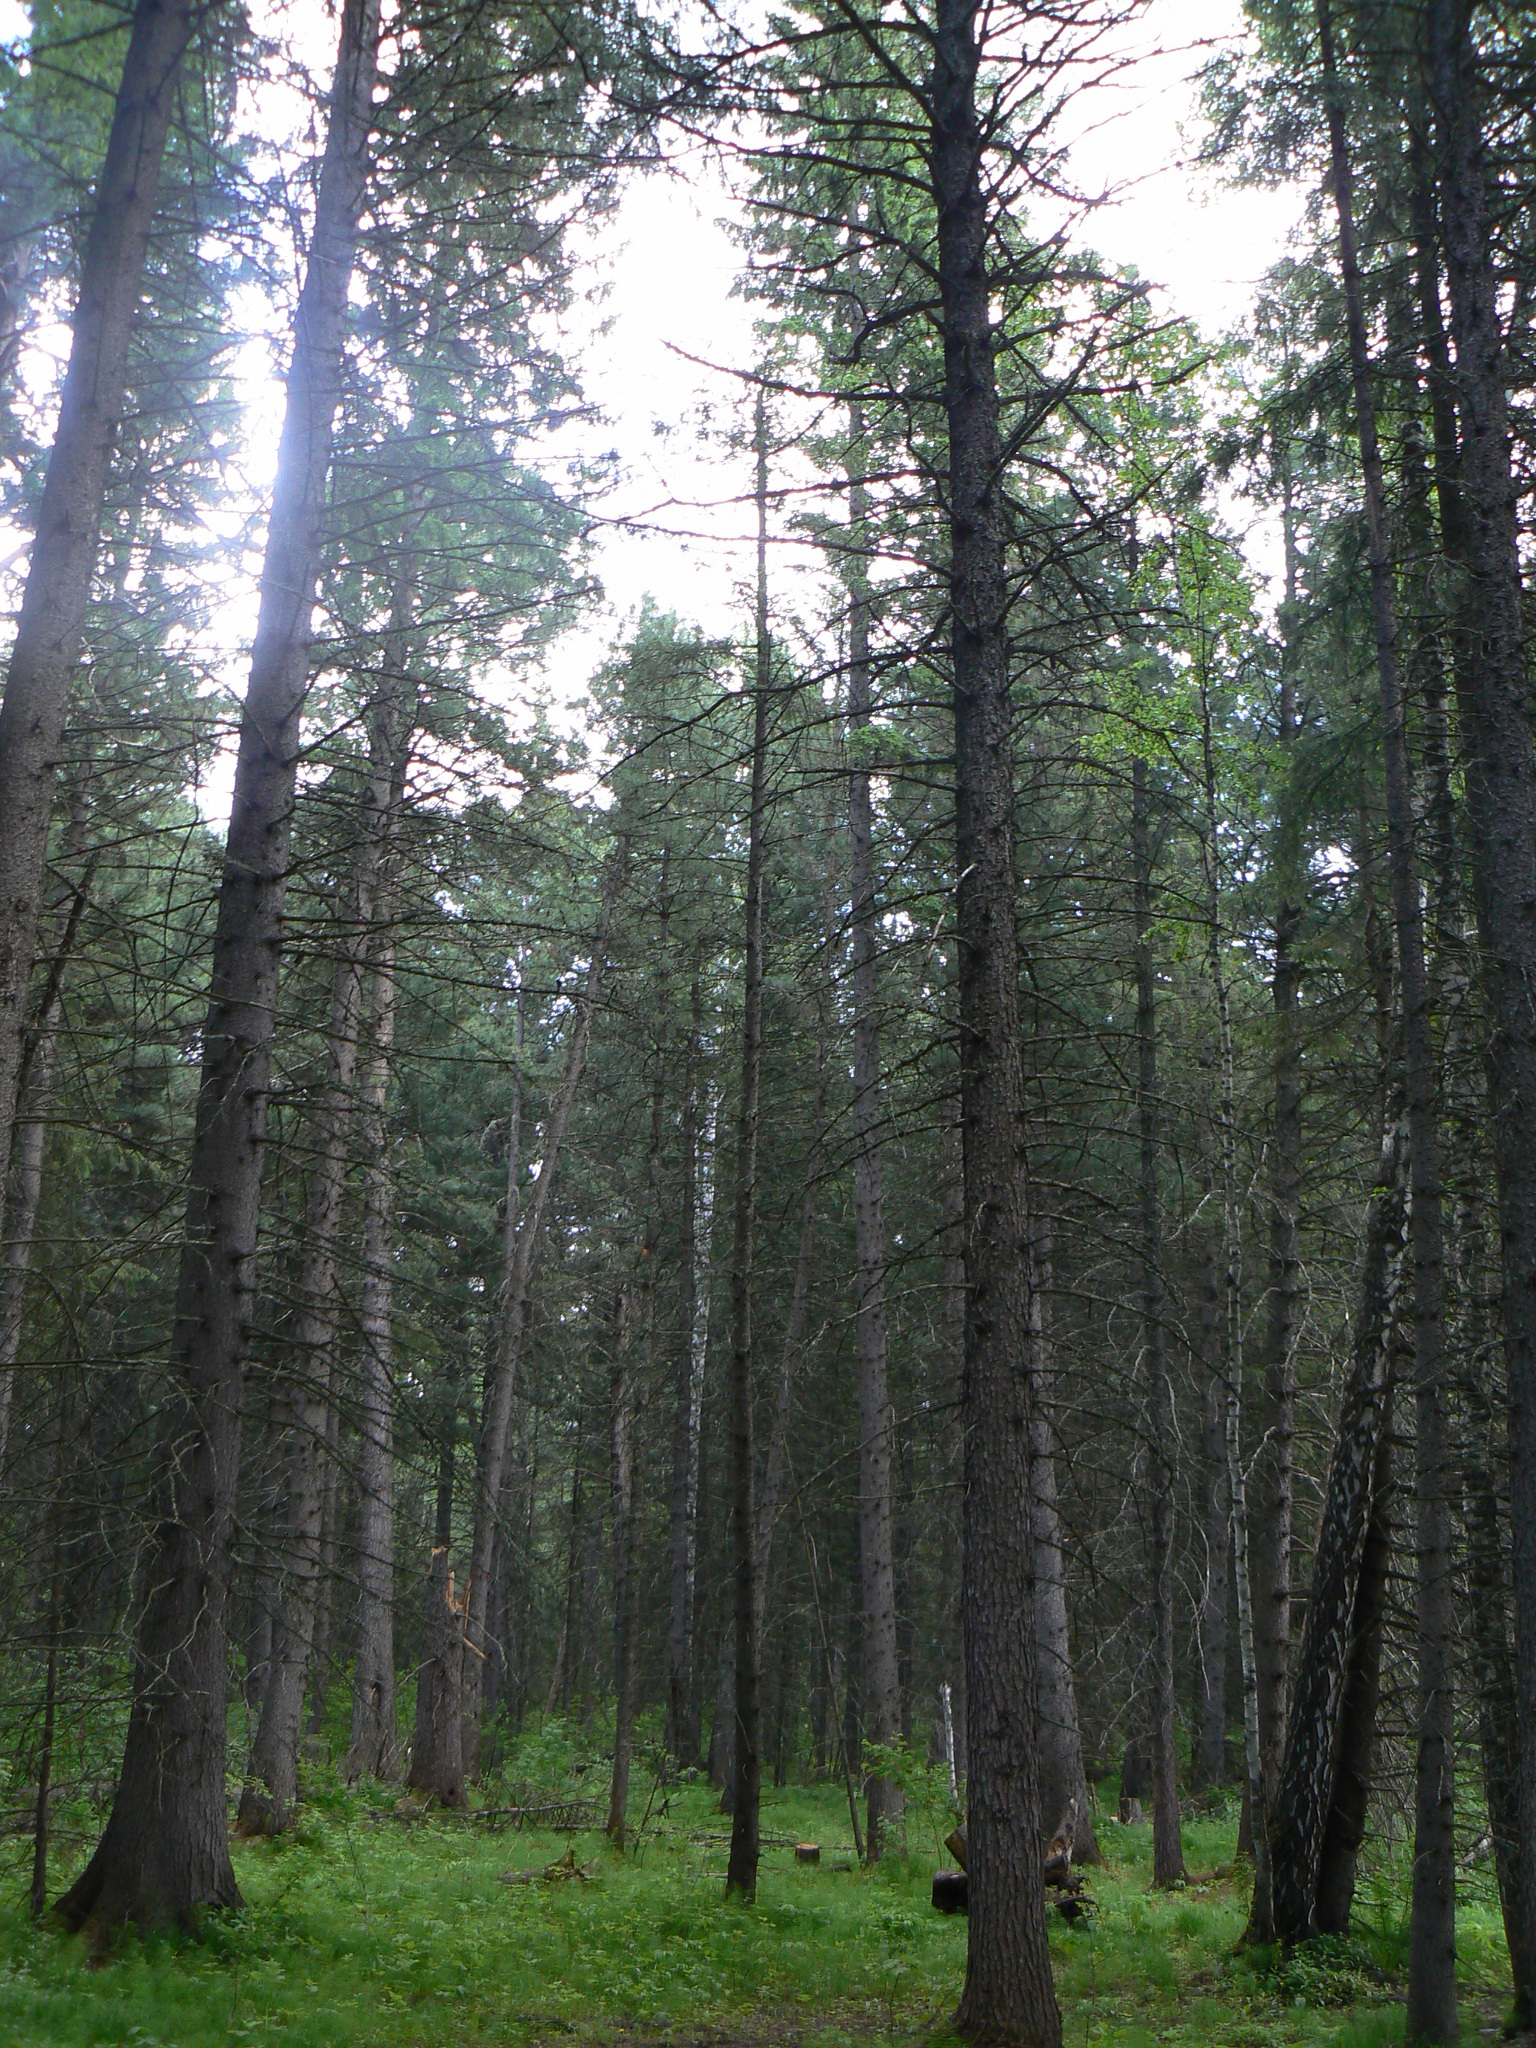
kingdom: Plantae
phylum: Tracheophyta
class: Pinopsida
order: Pinales
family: Pinaceae
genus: Pinus
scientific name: Pinus sibirica
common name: Siberian pine
